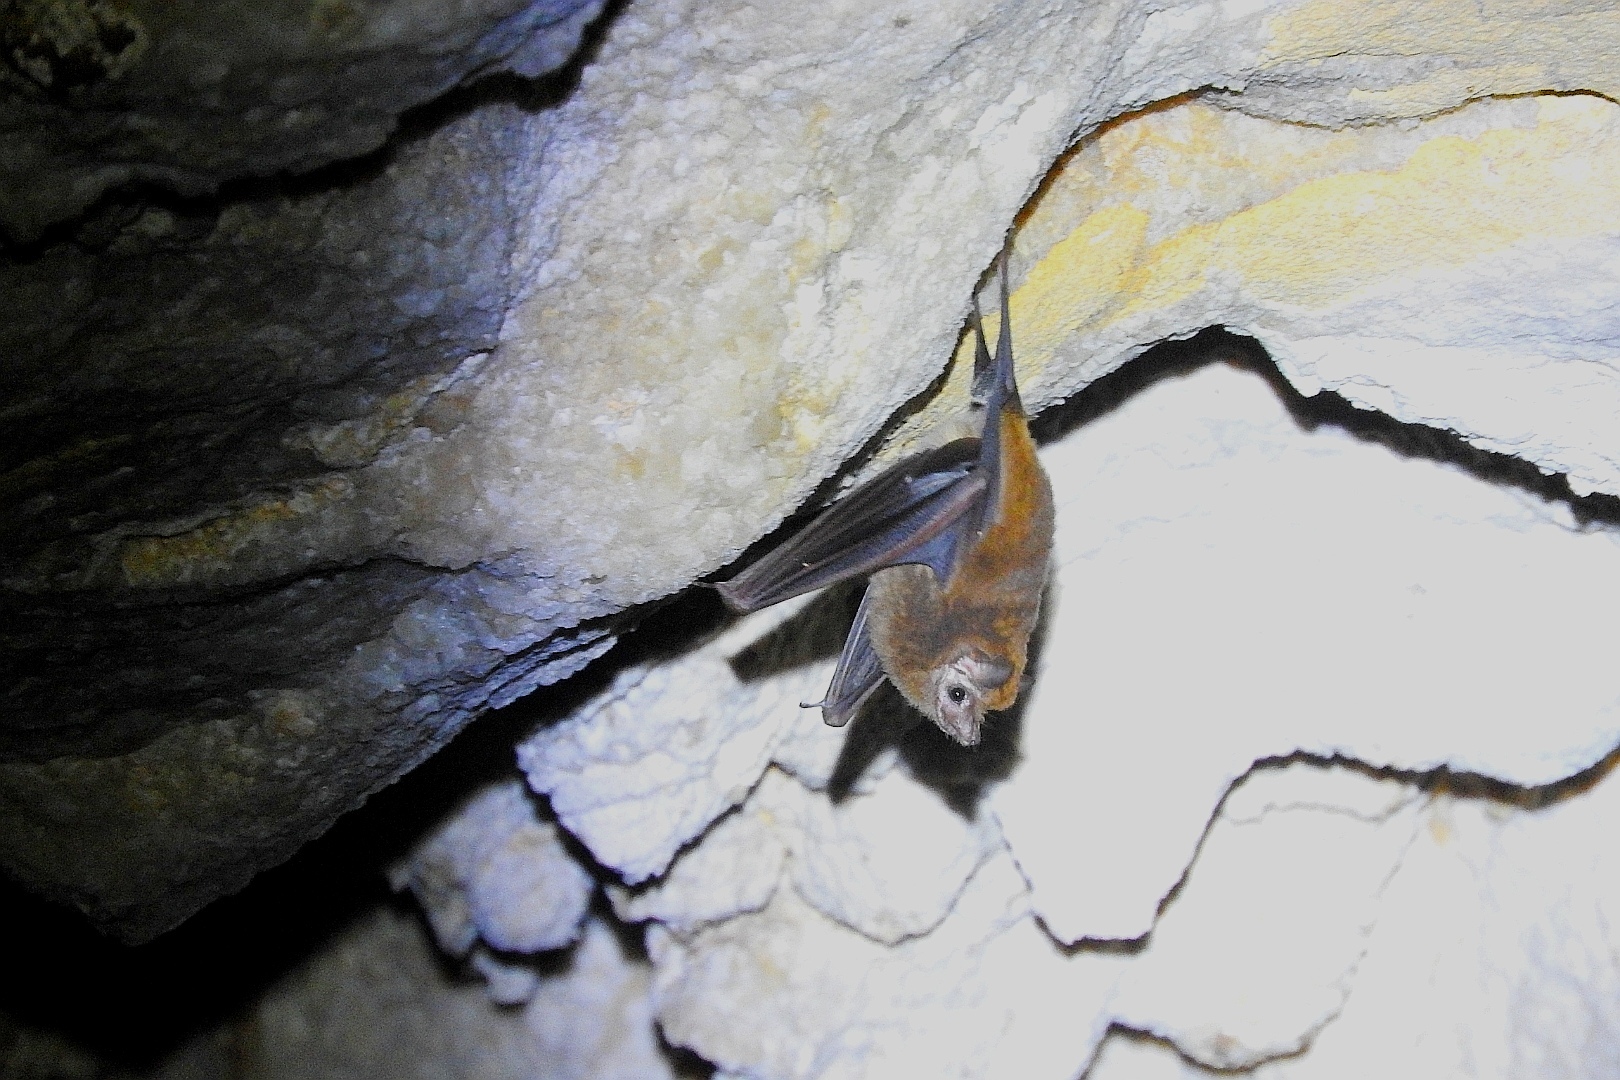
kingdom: Animalia
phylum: Chordata
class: Mammalia
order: Chiroptera
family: Emballonuridae
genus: Peropteryx
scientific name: Peropteryx macrotis
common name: Lesser dog-like bat
